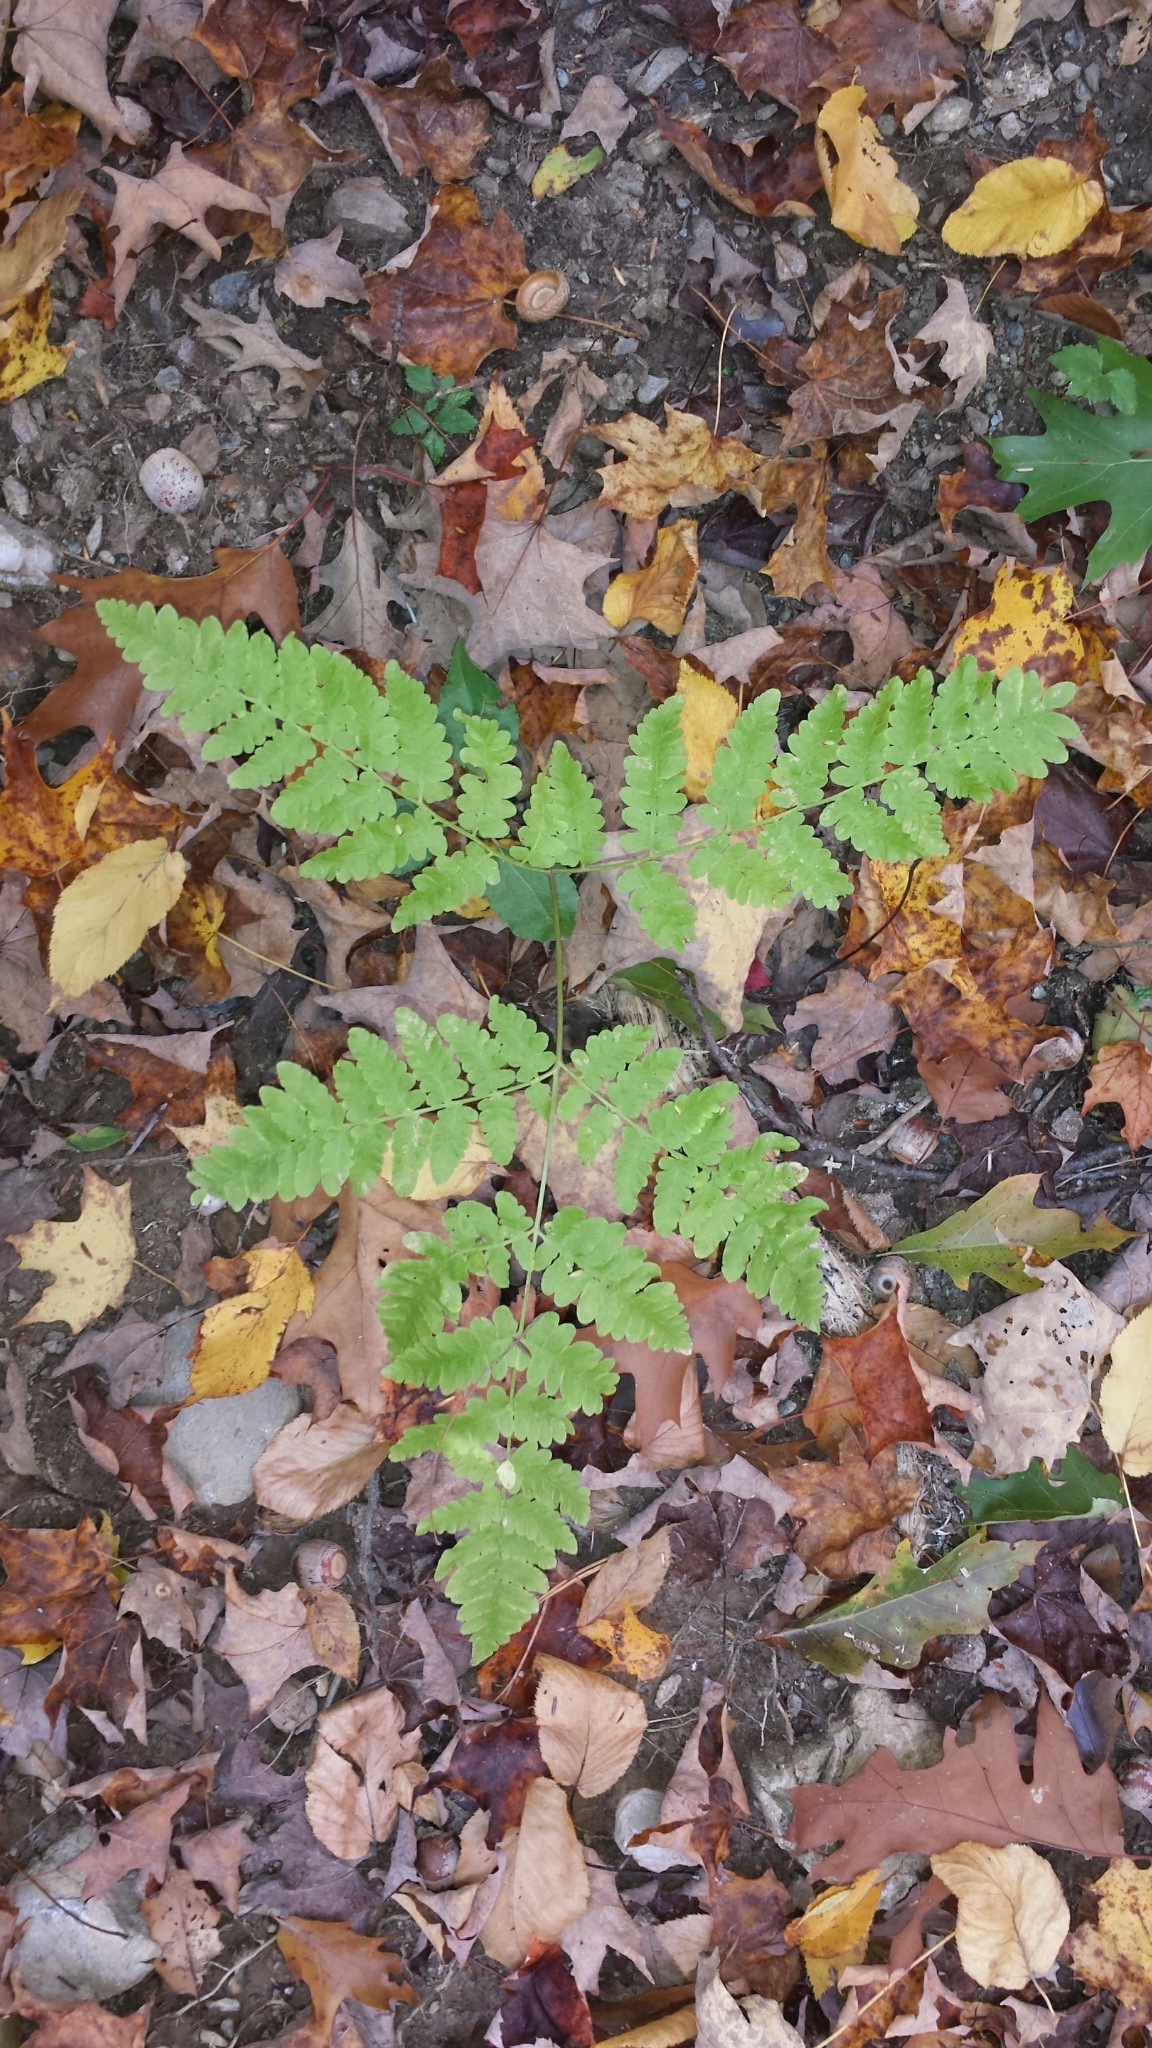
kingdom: Plantae
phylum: Tracheophyta
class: Polypodiopsida
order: Polypodiales
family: Dennstaedtiaceae
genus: Pteridium
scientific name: Pteridium aquilinum
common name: Bracken
